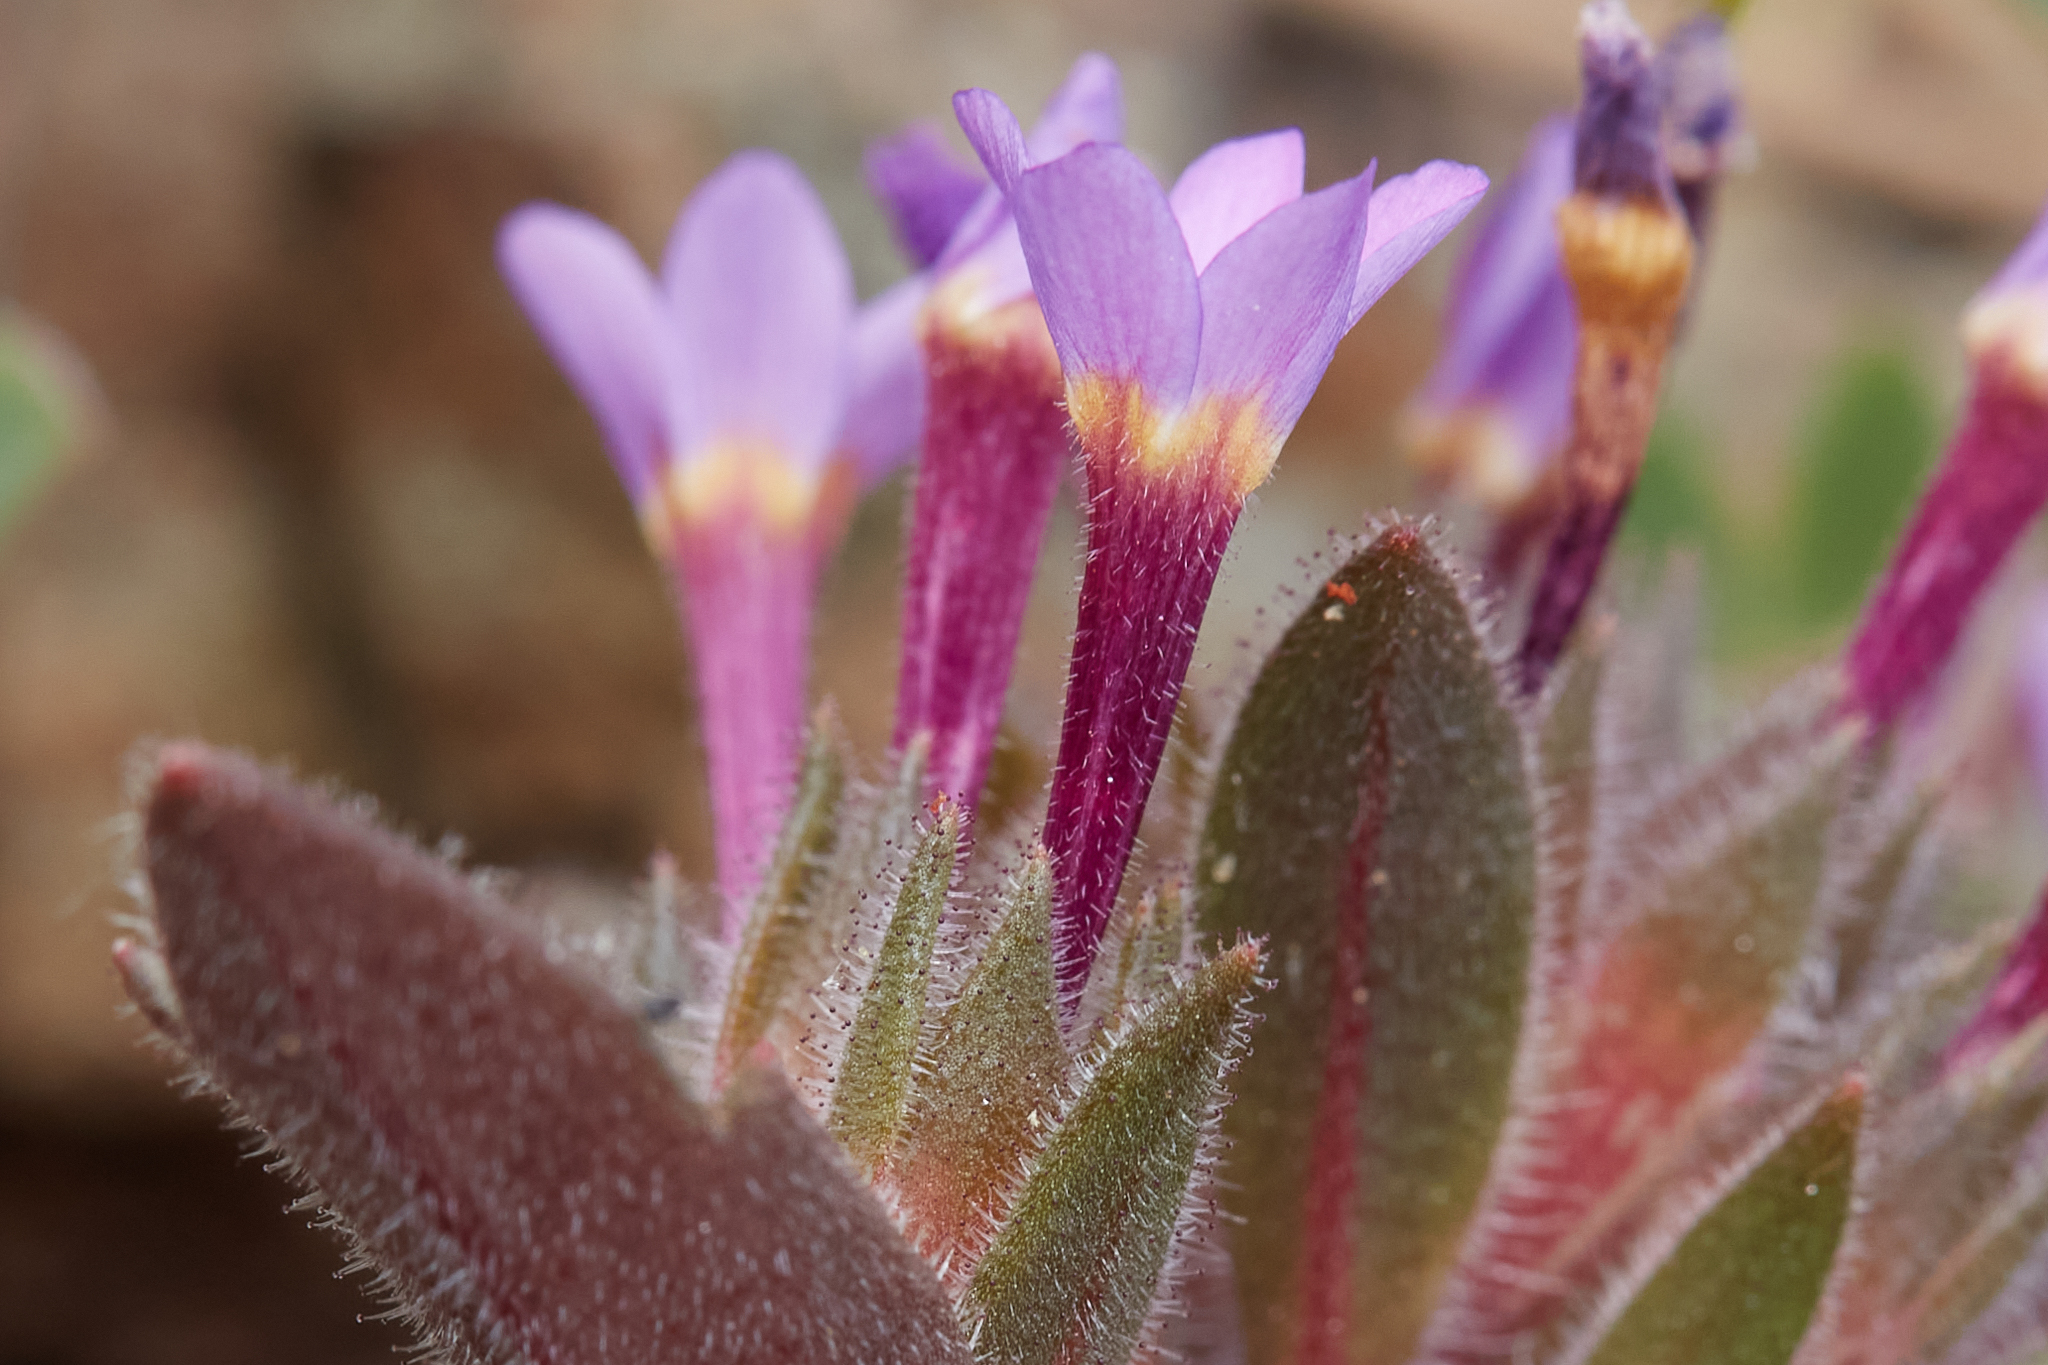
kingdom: Plantae
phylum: Tracheophyta
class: Magnoliopsida
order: Ericales
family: Polemoniaceae
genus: Collomia
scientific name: Collomia diversifolia
